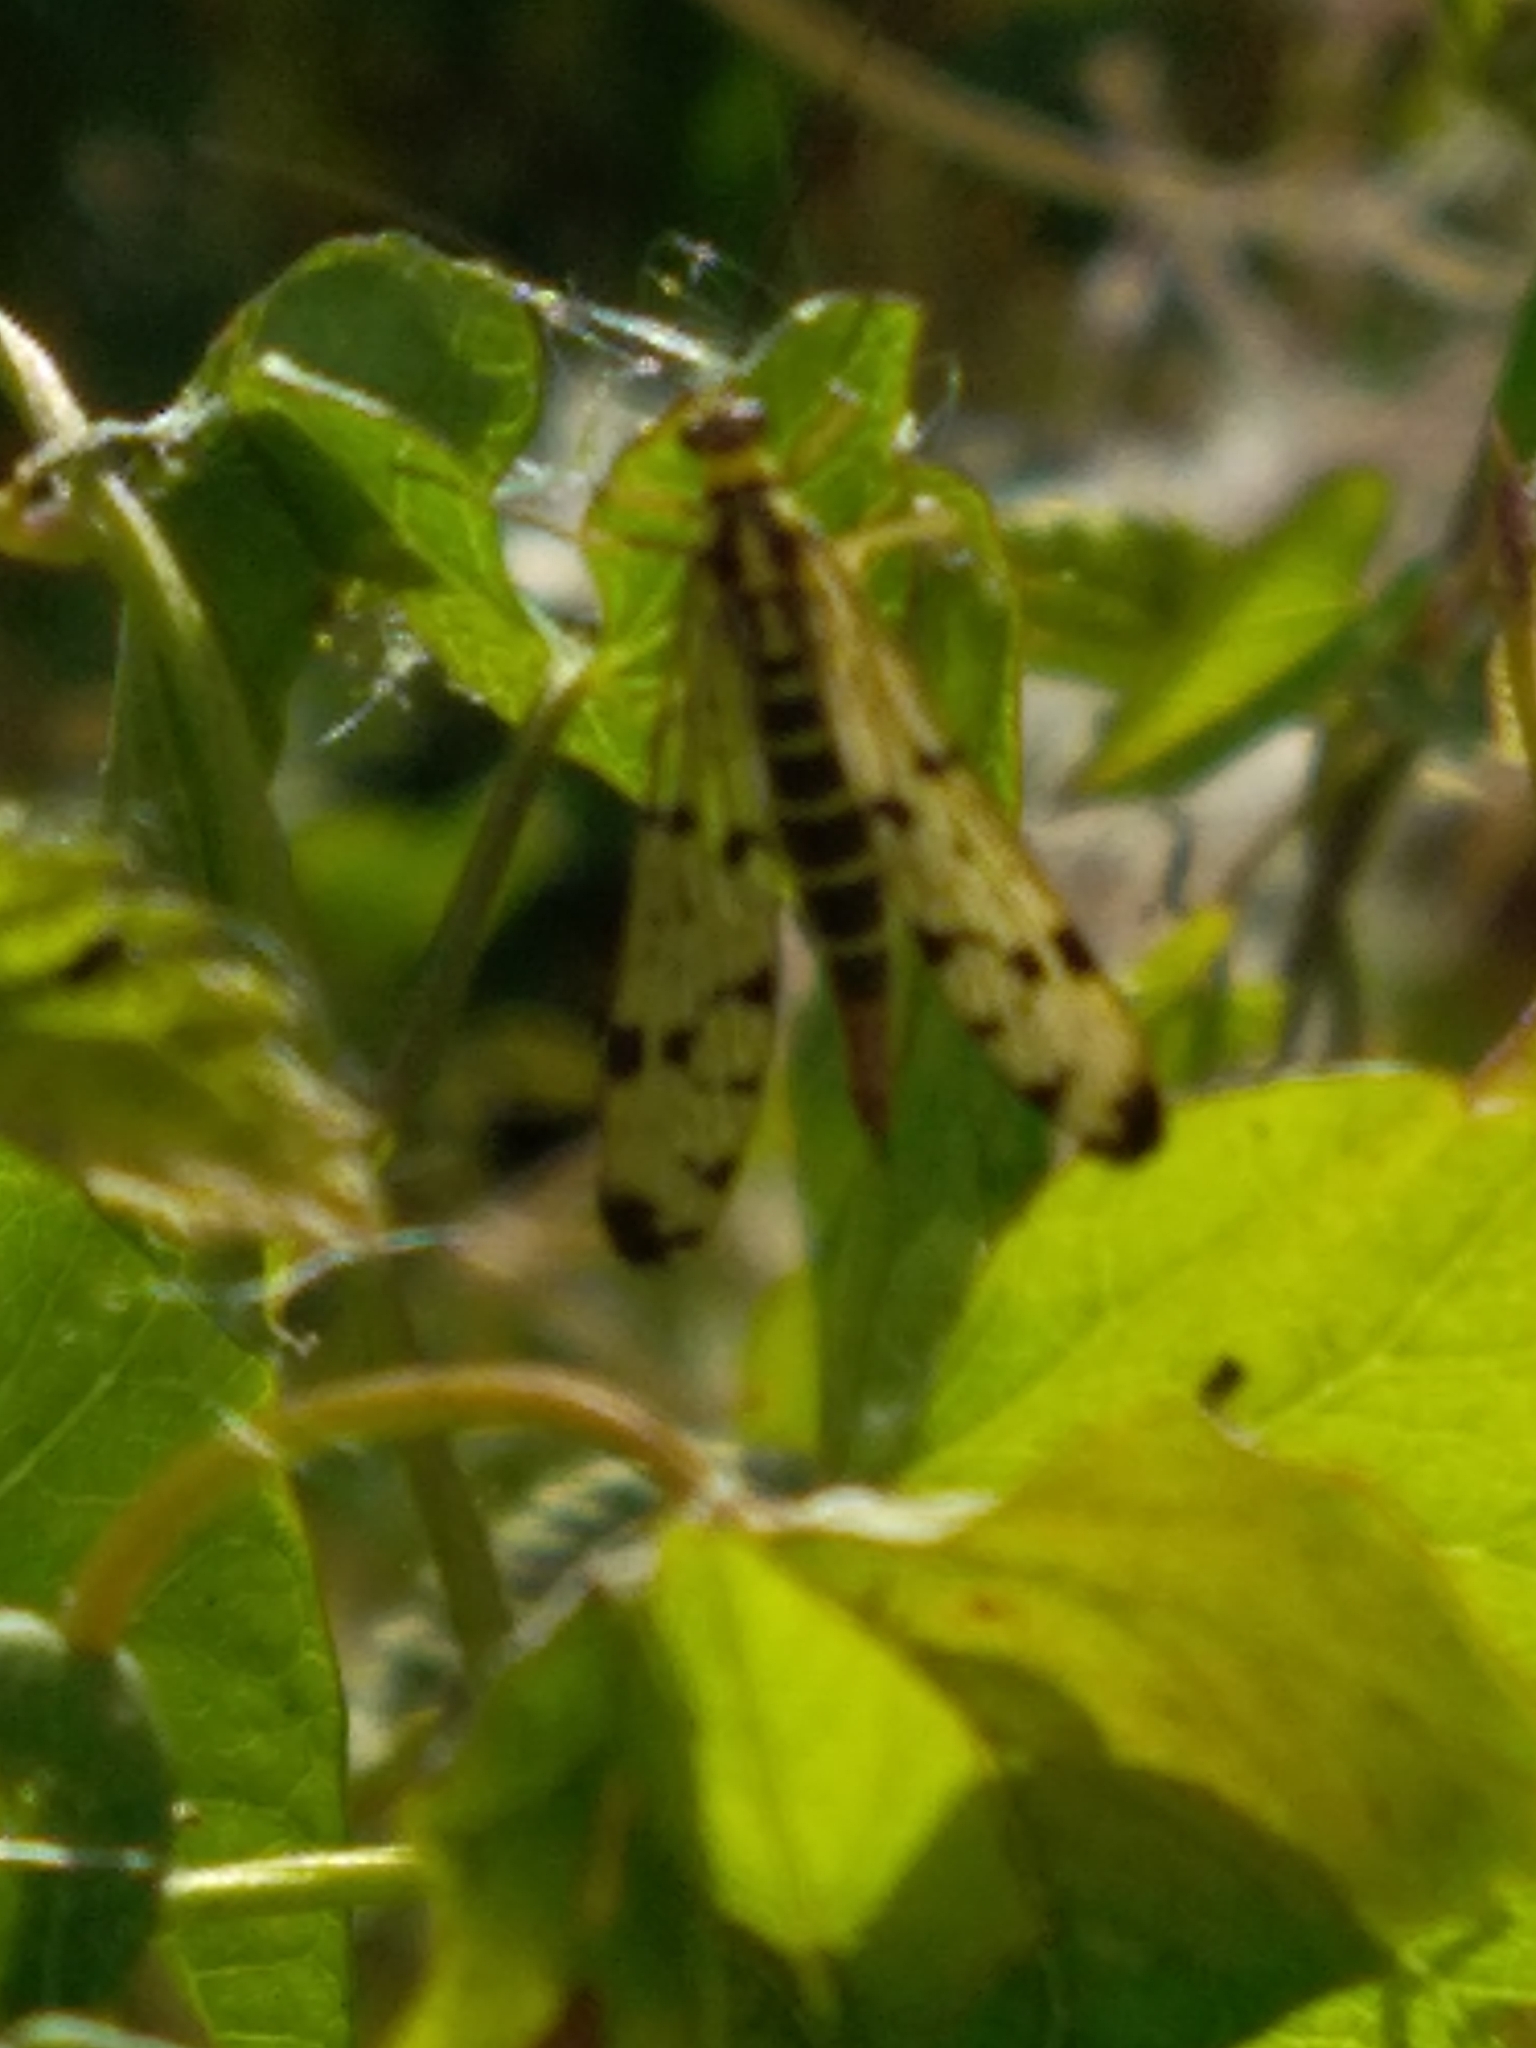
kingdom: Animalia
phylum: Arthropoda
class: Insecta
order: Mecoptera
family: Panorpidae
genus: Panorpa
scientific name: Panorpa germanica
